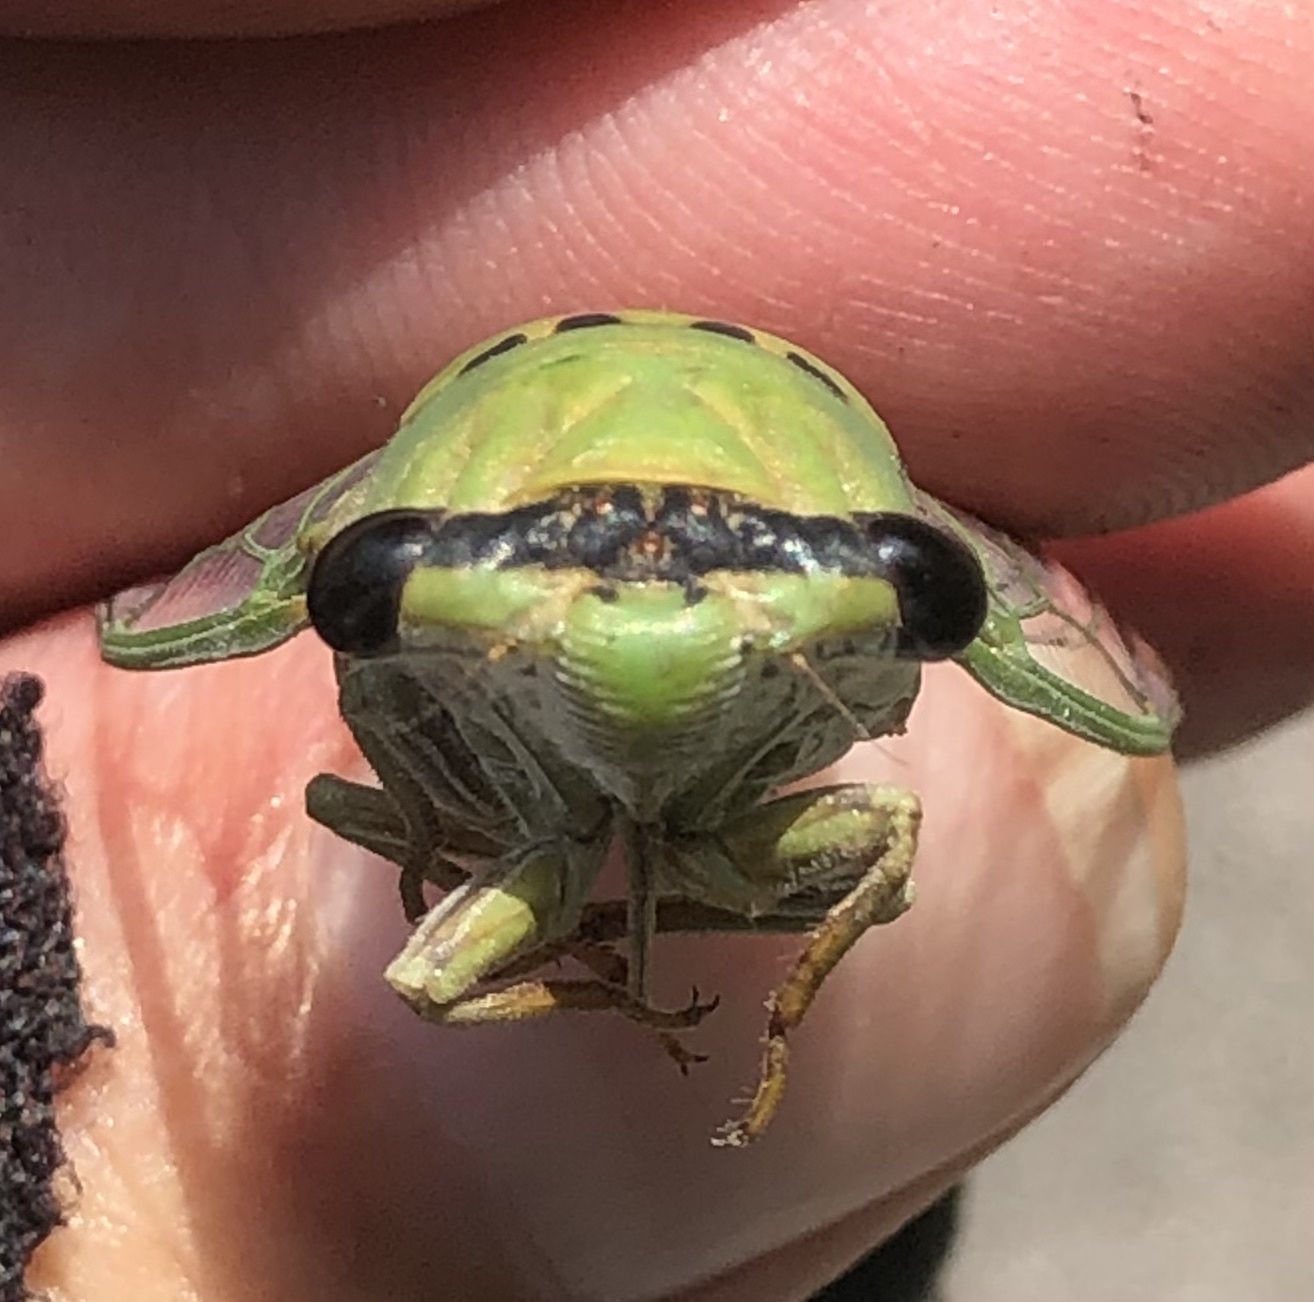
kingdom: Animalia
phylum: Arthropoda
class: Insecta
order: Hemiptera
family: Cicadidae
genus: Neotibicen
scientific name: Neotibicen superbus
